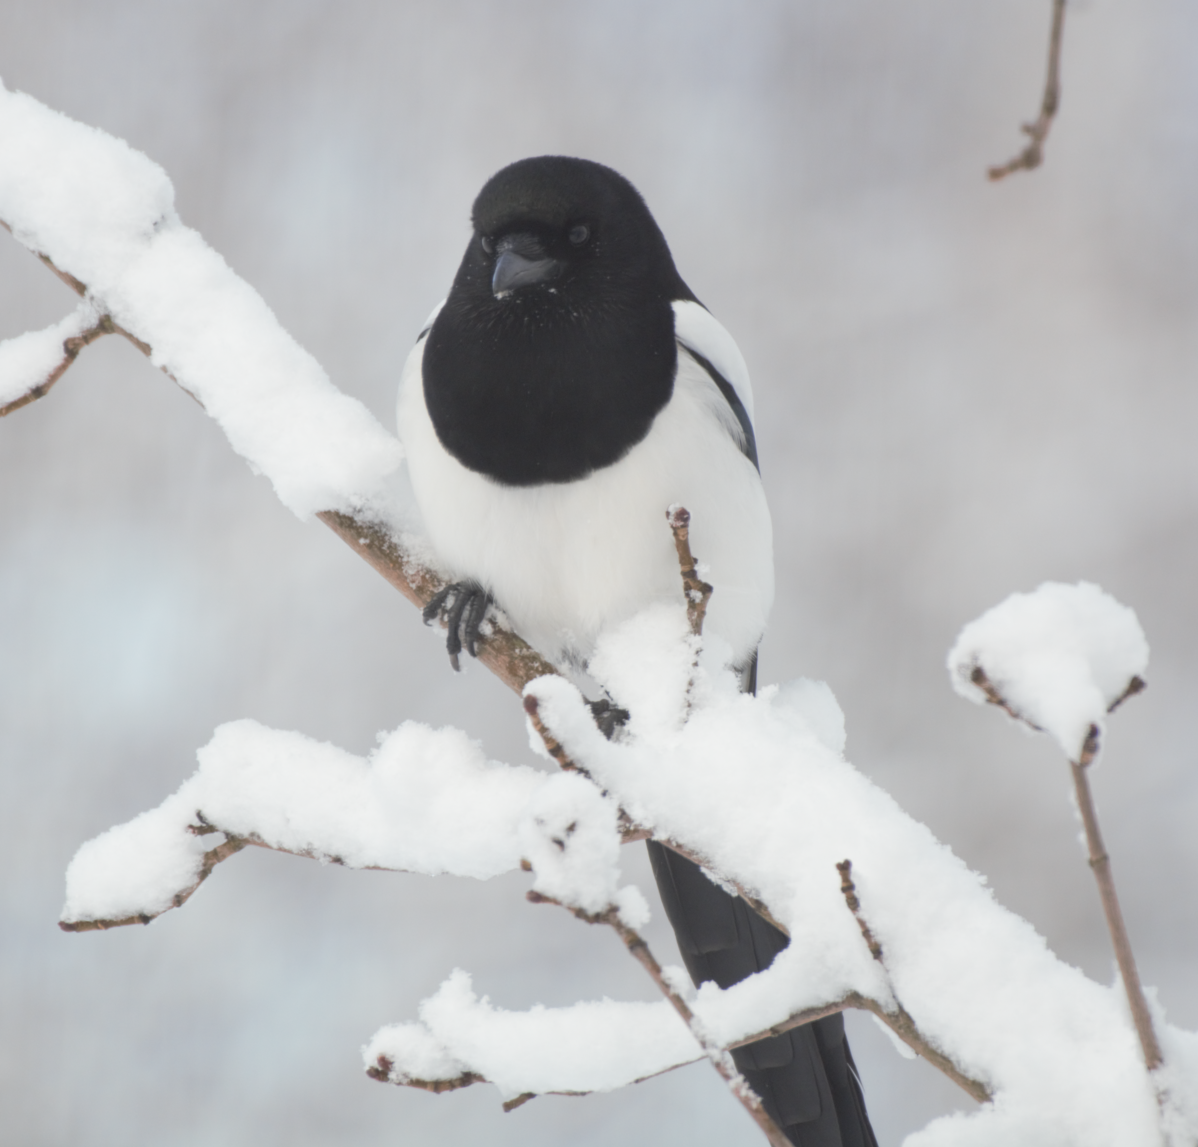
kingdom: Animalia
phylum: Chordata
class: Aves
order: Passeriformes
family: Corvidae
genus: Pica
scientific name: Pica pica
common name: Eurasian magpie
